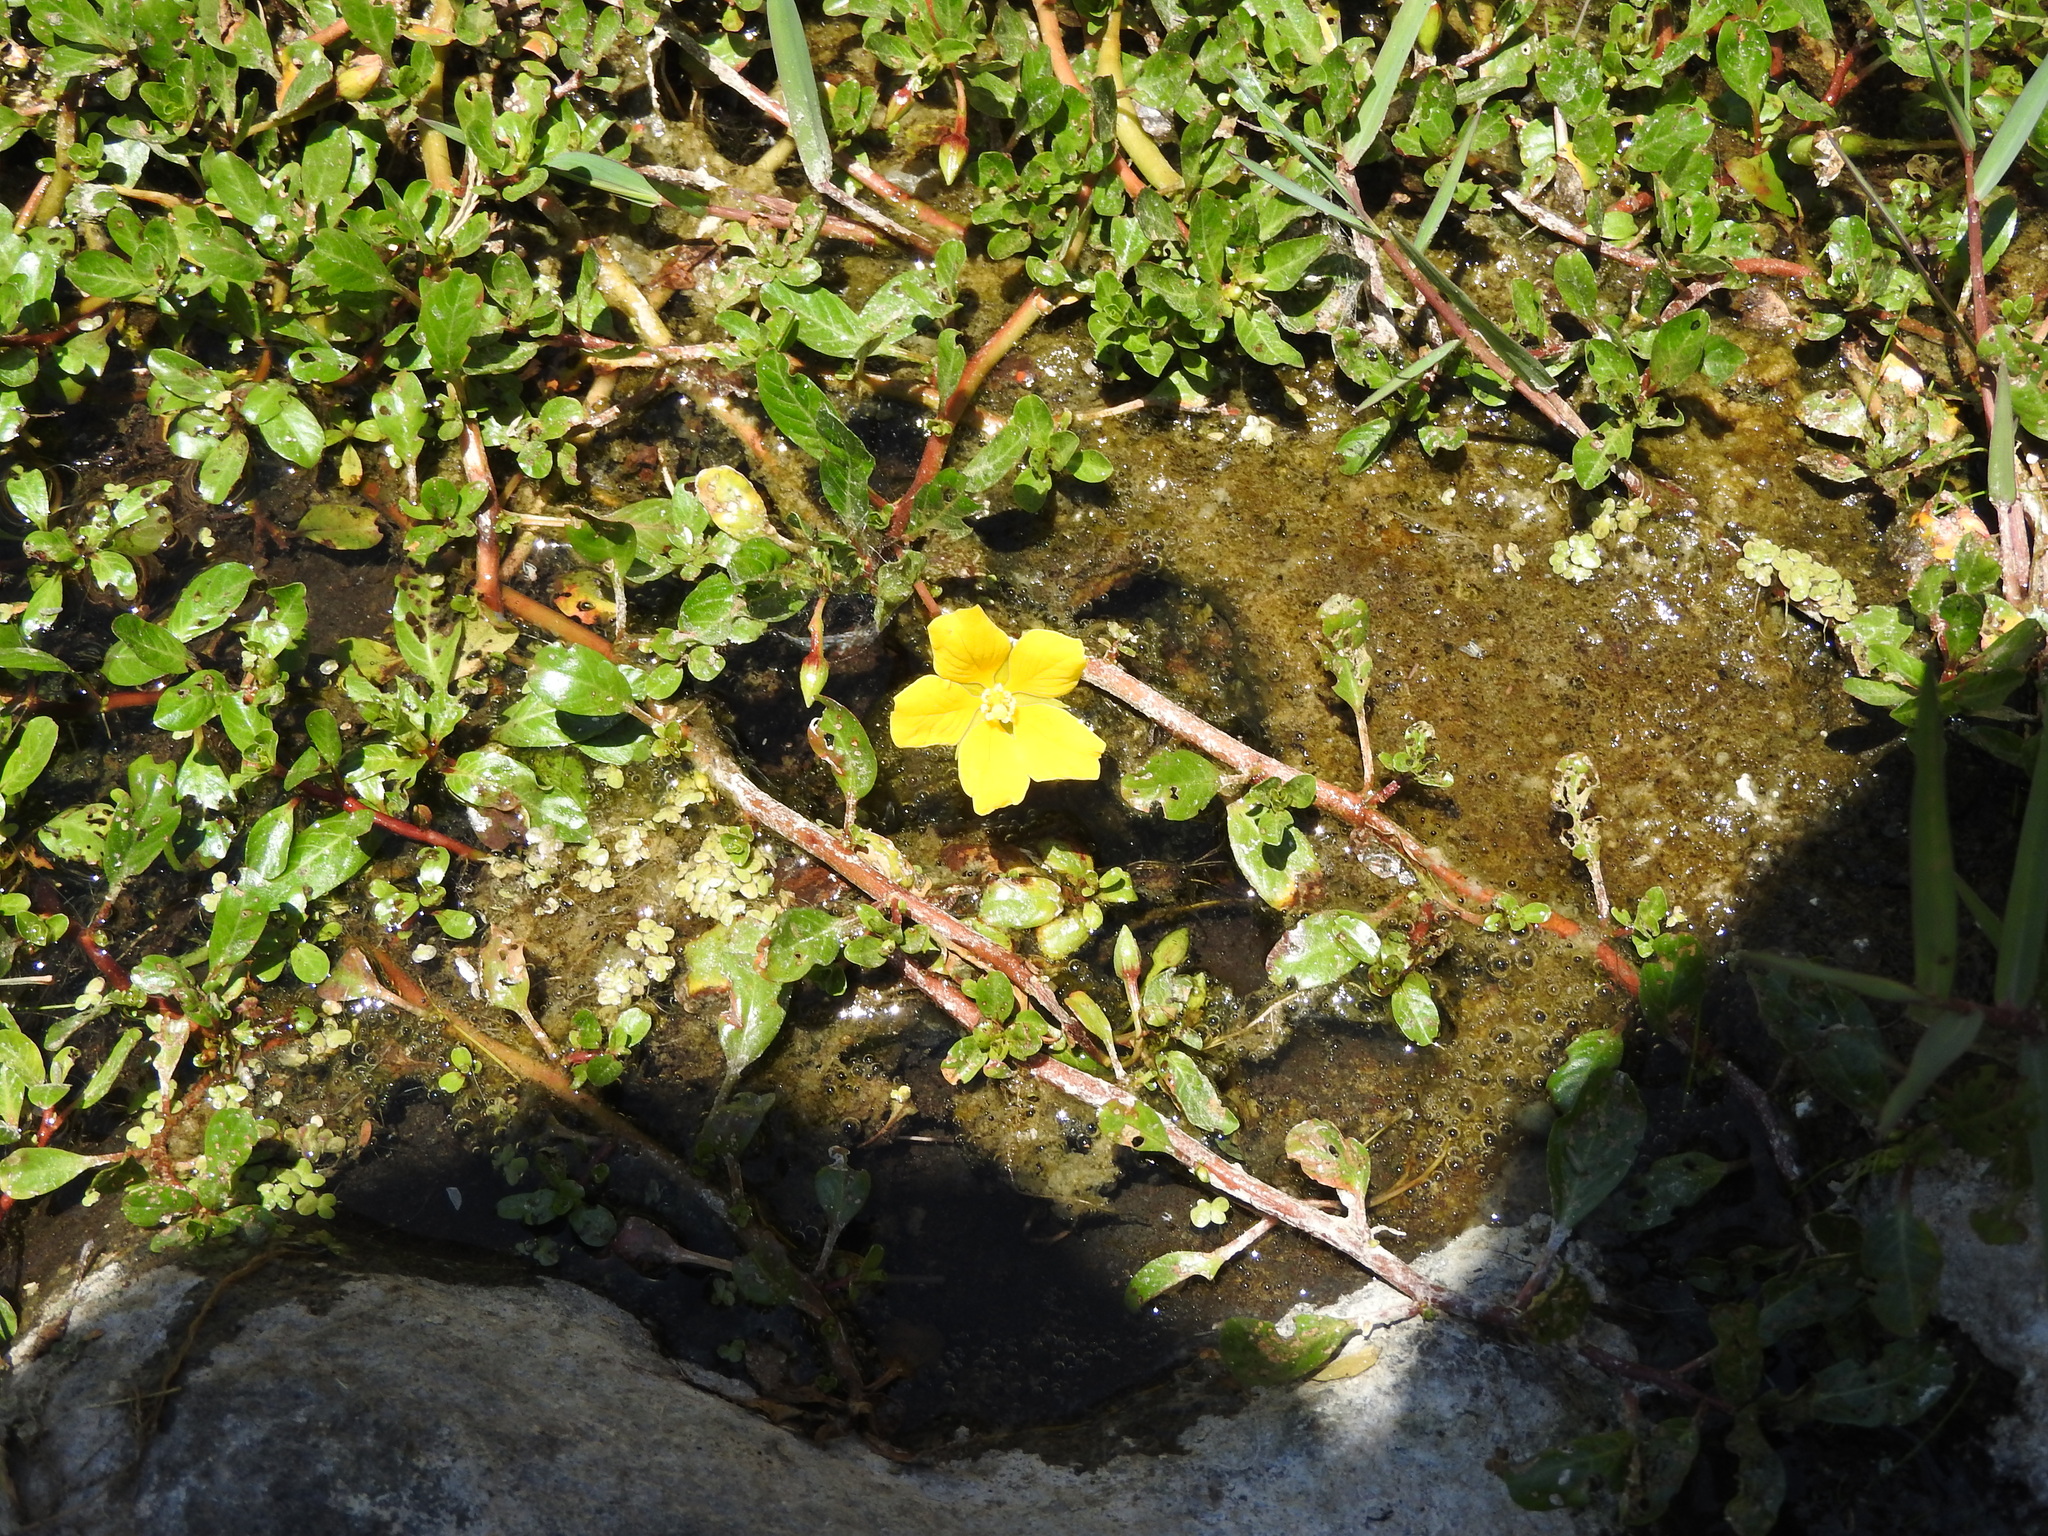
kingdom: Plantae
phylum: Tracheophyta
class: Magnoliopsida
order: Myrtales
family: Onagraceae
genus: Ludwigia
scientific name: Ludwigia peploides
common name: Floating primrose-willow
